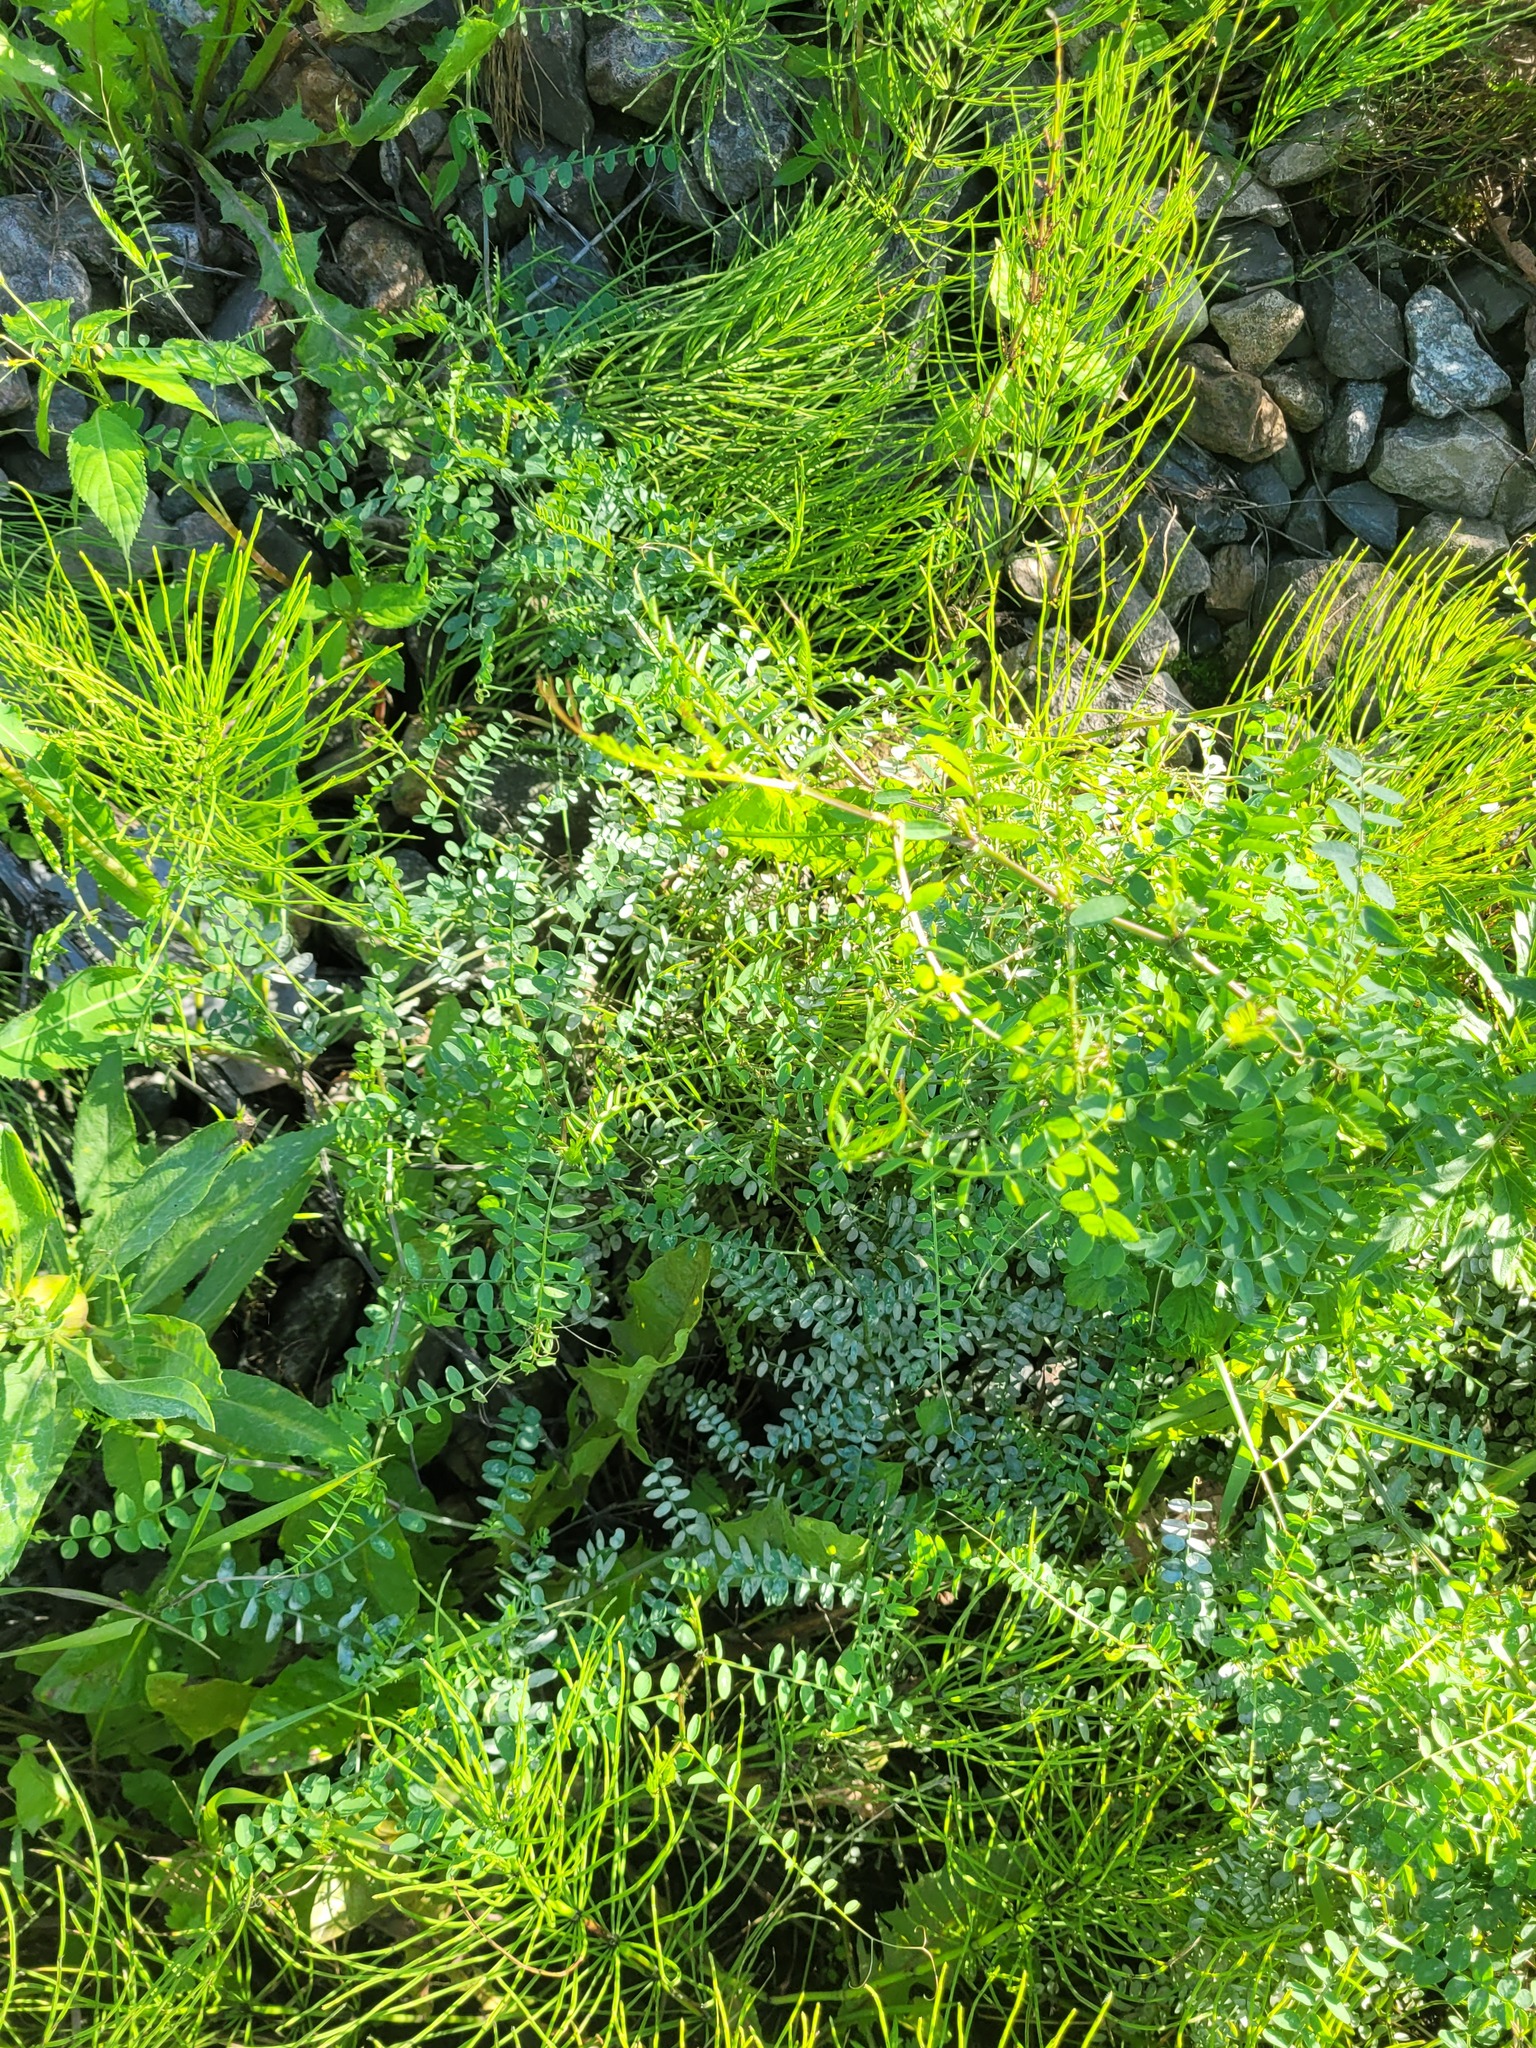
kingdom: Plantae
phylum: Tracheophyta
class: Magnoliopsida
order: Fabales
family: Fabaceae
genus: Vicia
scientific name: Vicia sylvatica
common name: Wood vetch
